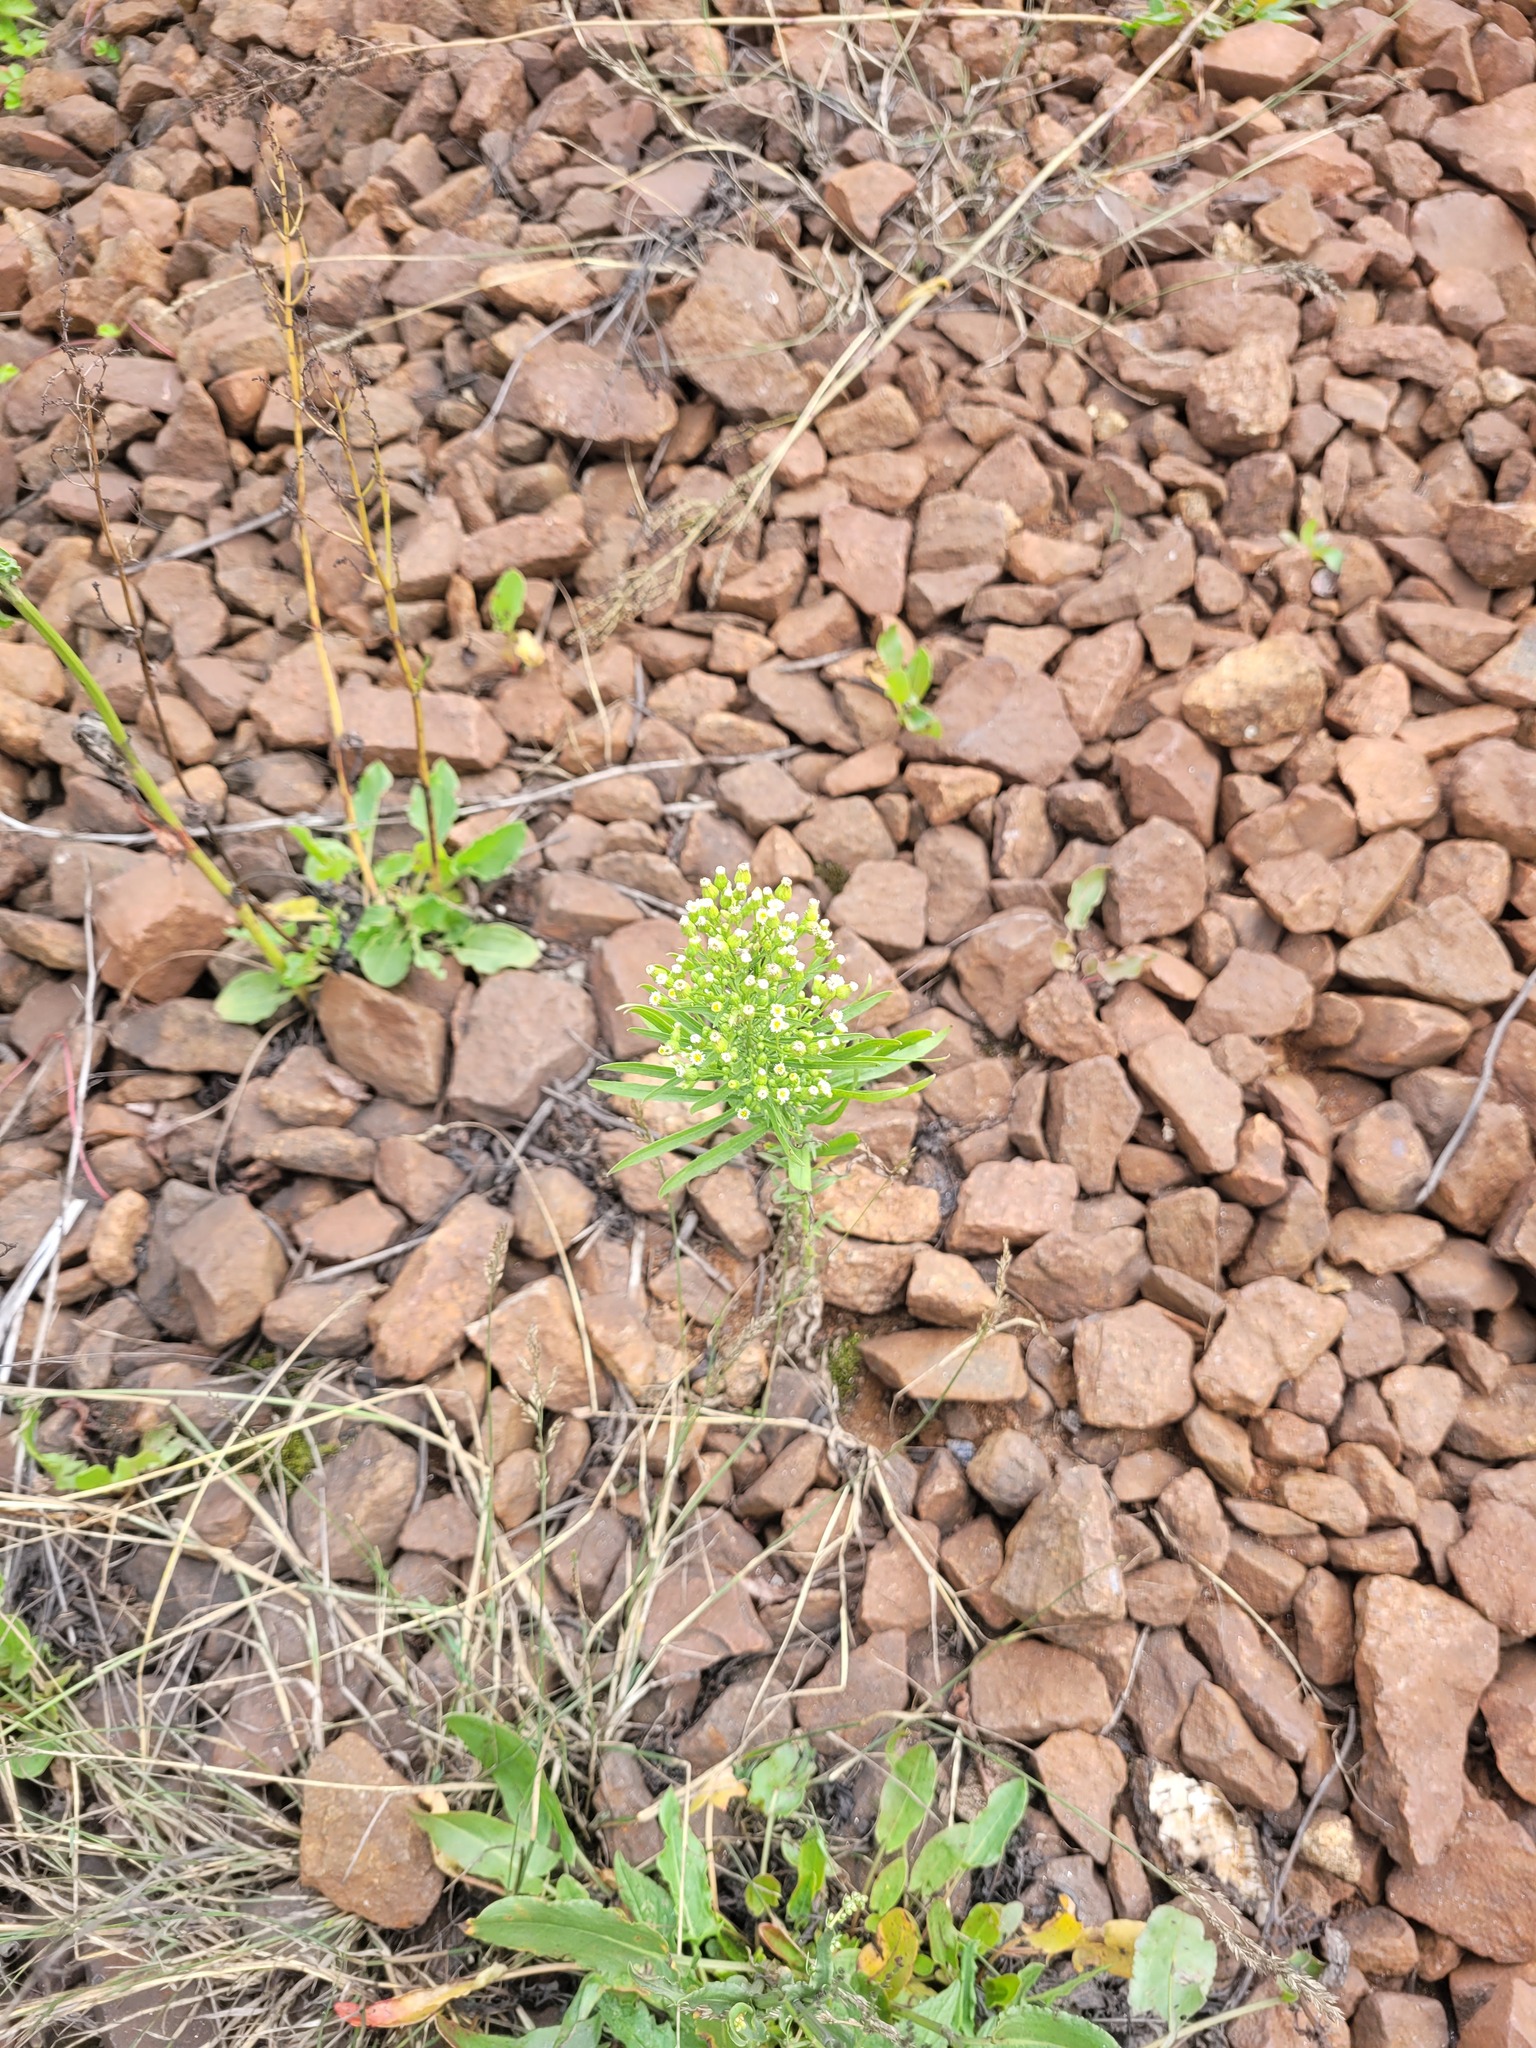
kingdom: Plantae
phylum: Tracheophyta
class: Magnoliopsida
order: Asterales
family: Asteraceae
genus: Erigeron
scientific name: Erigeron canadensis
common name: Canadian fleabane
